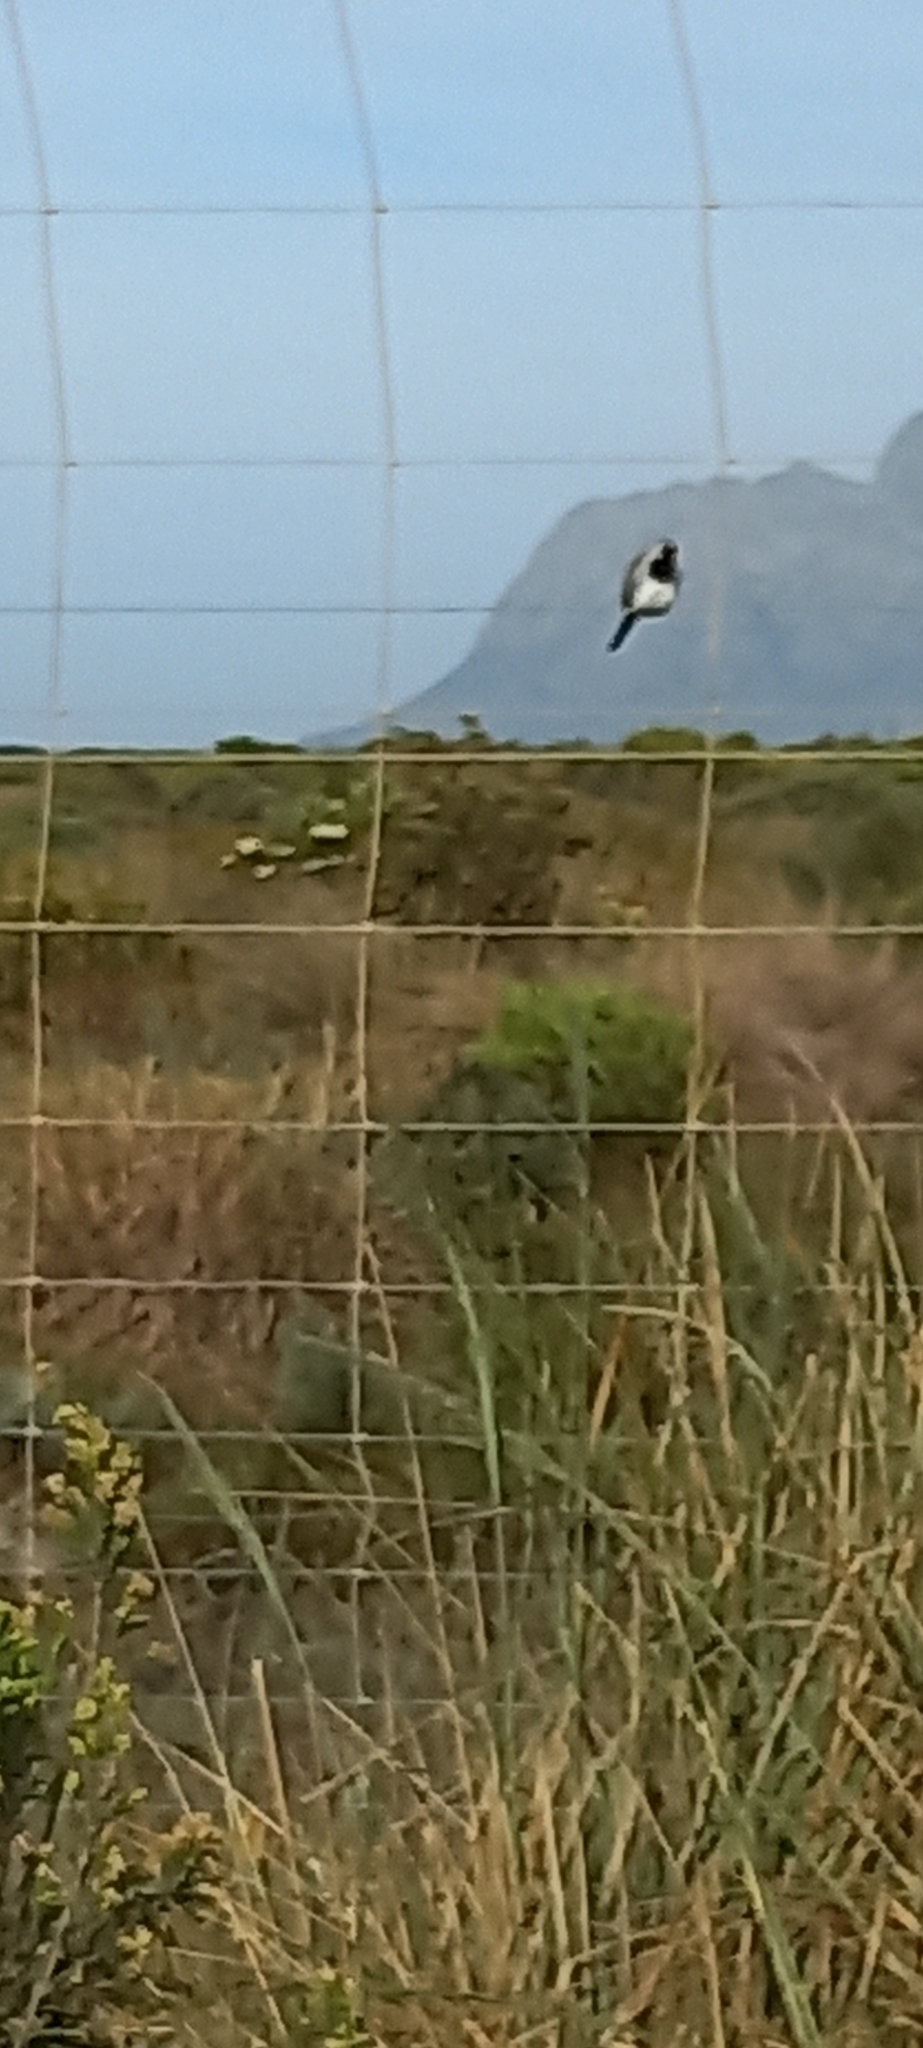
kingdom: Animalia
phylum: Chordata
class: Aves
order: Columbiformes
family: Columbidae
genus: Oena
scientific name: Oena capensis
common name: Namaqua dove
